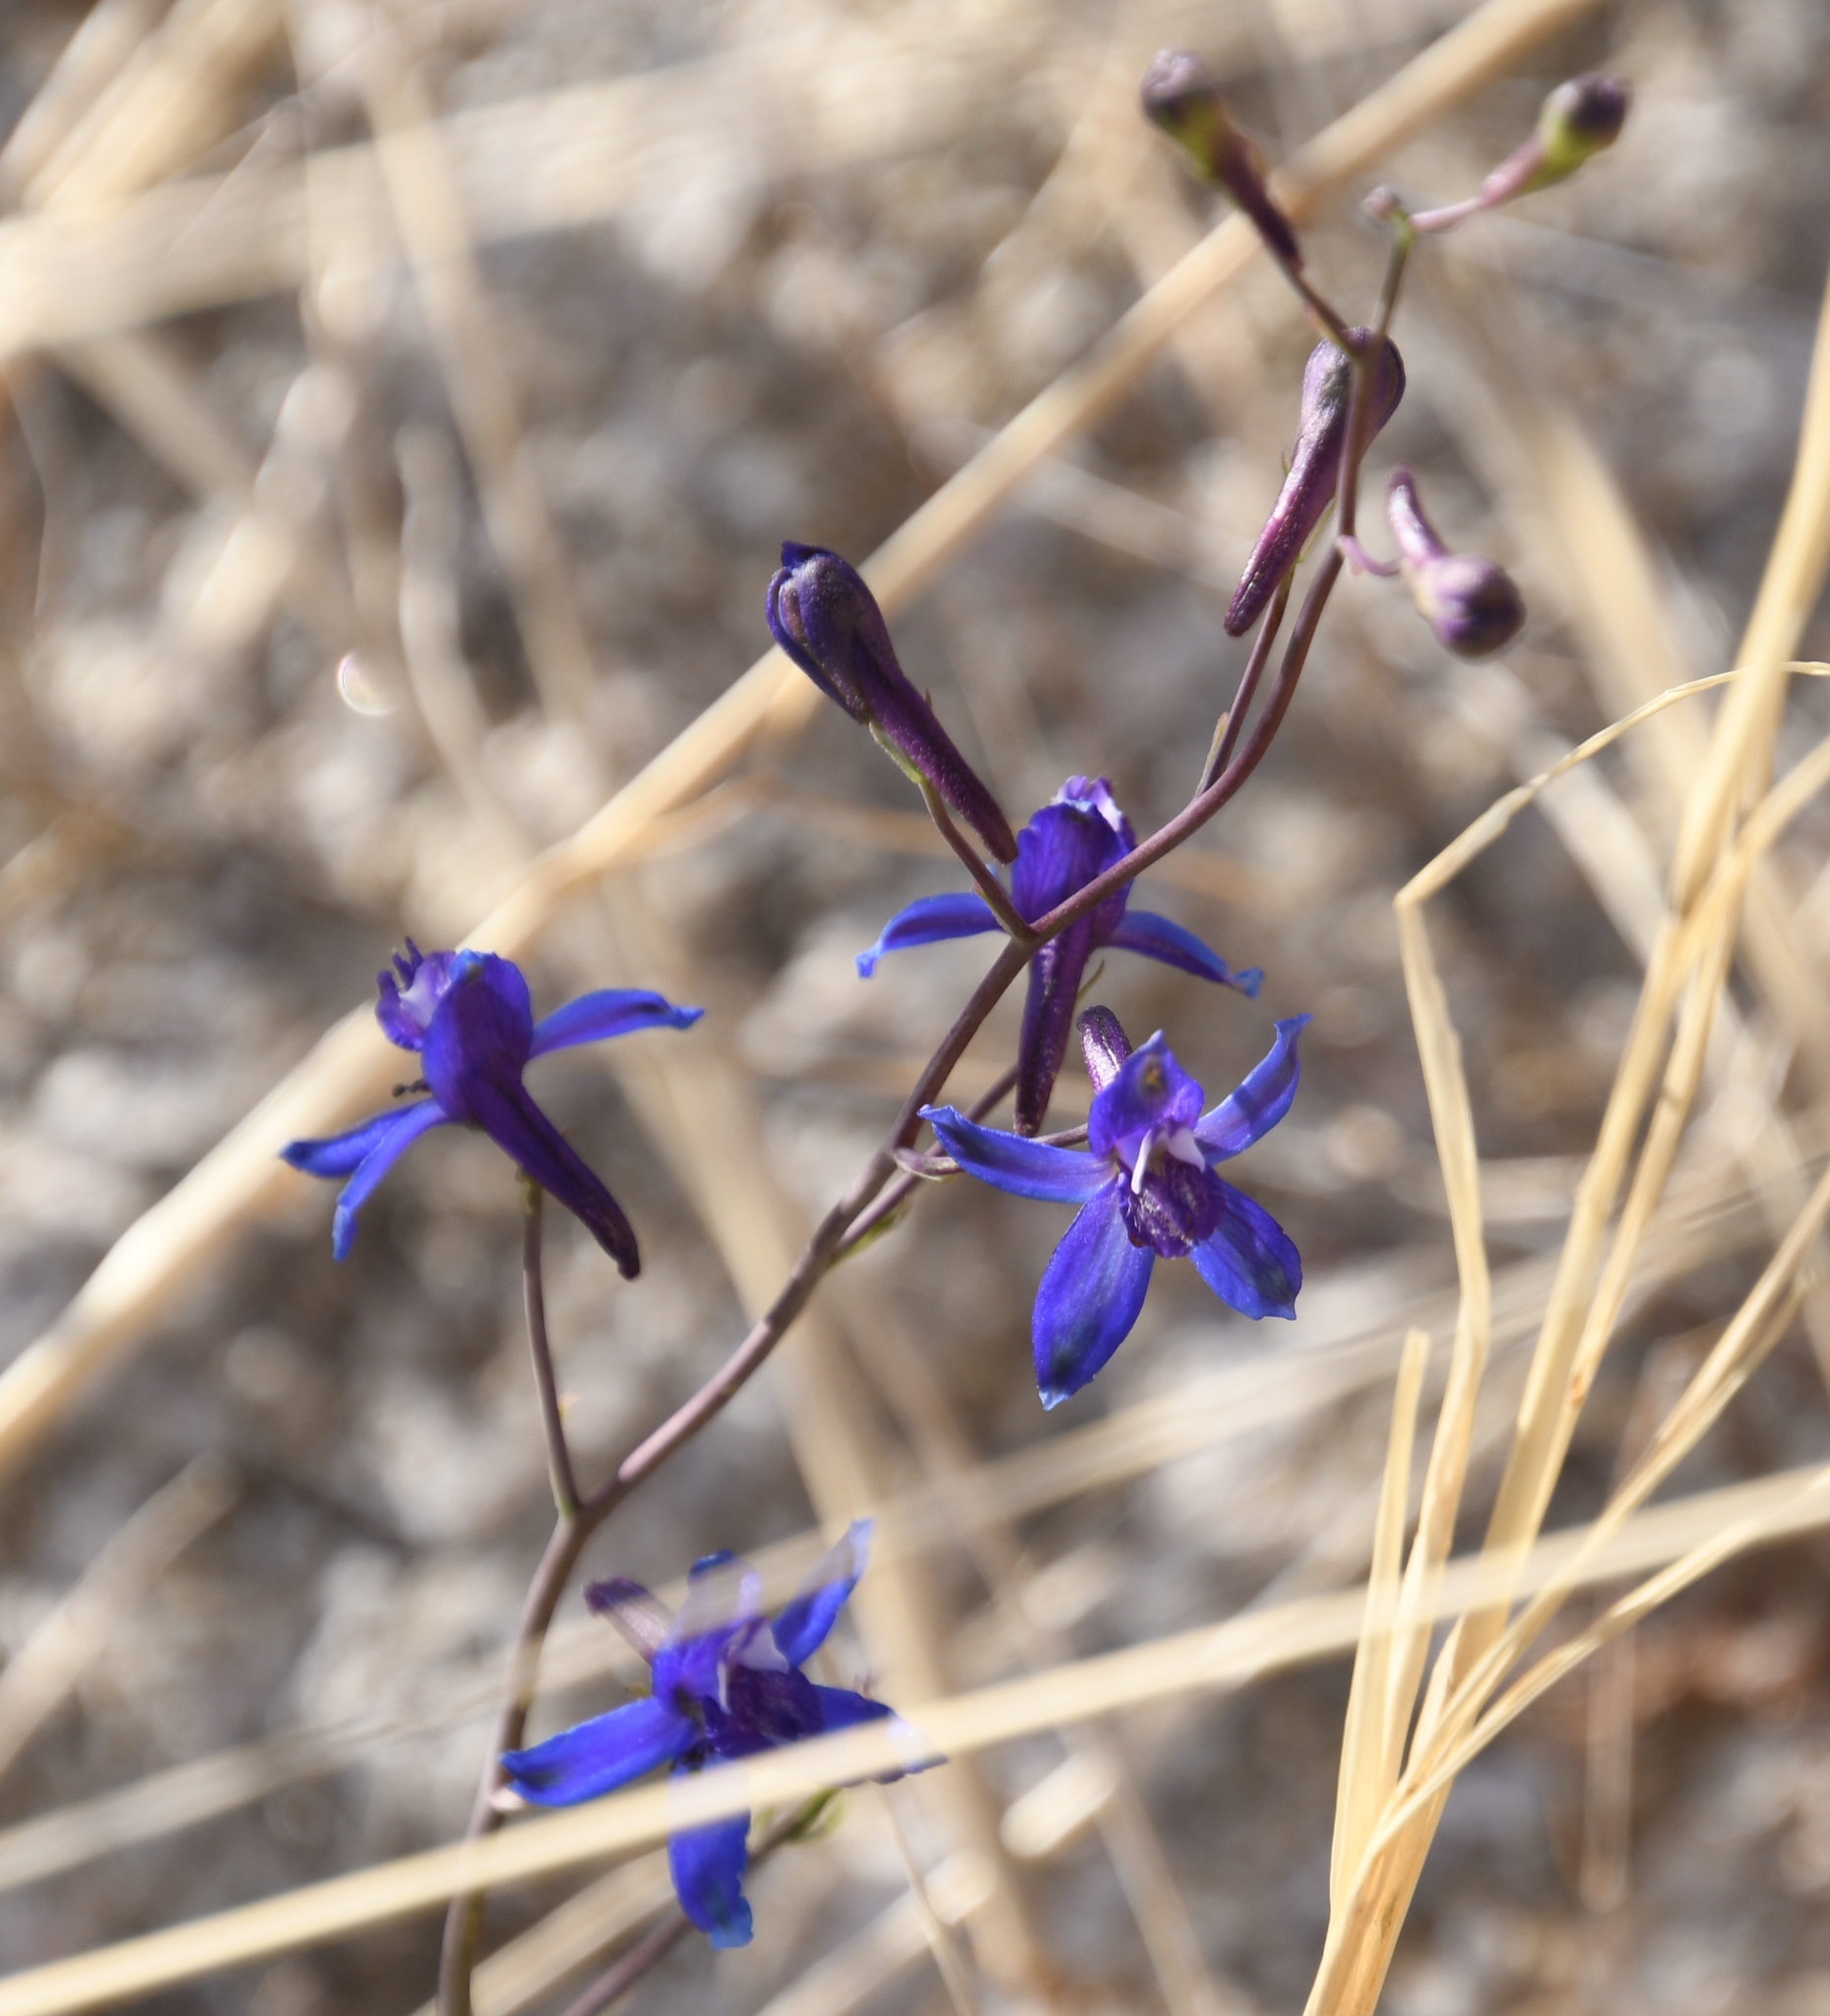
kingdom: Plantae
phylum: Tracheophyta
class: Magnoliopsida
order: Ranunculales
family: Ranunculaceae
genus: Delphinium
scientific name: Delphinium scaposum
